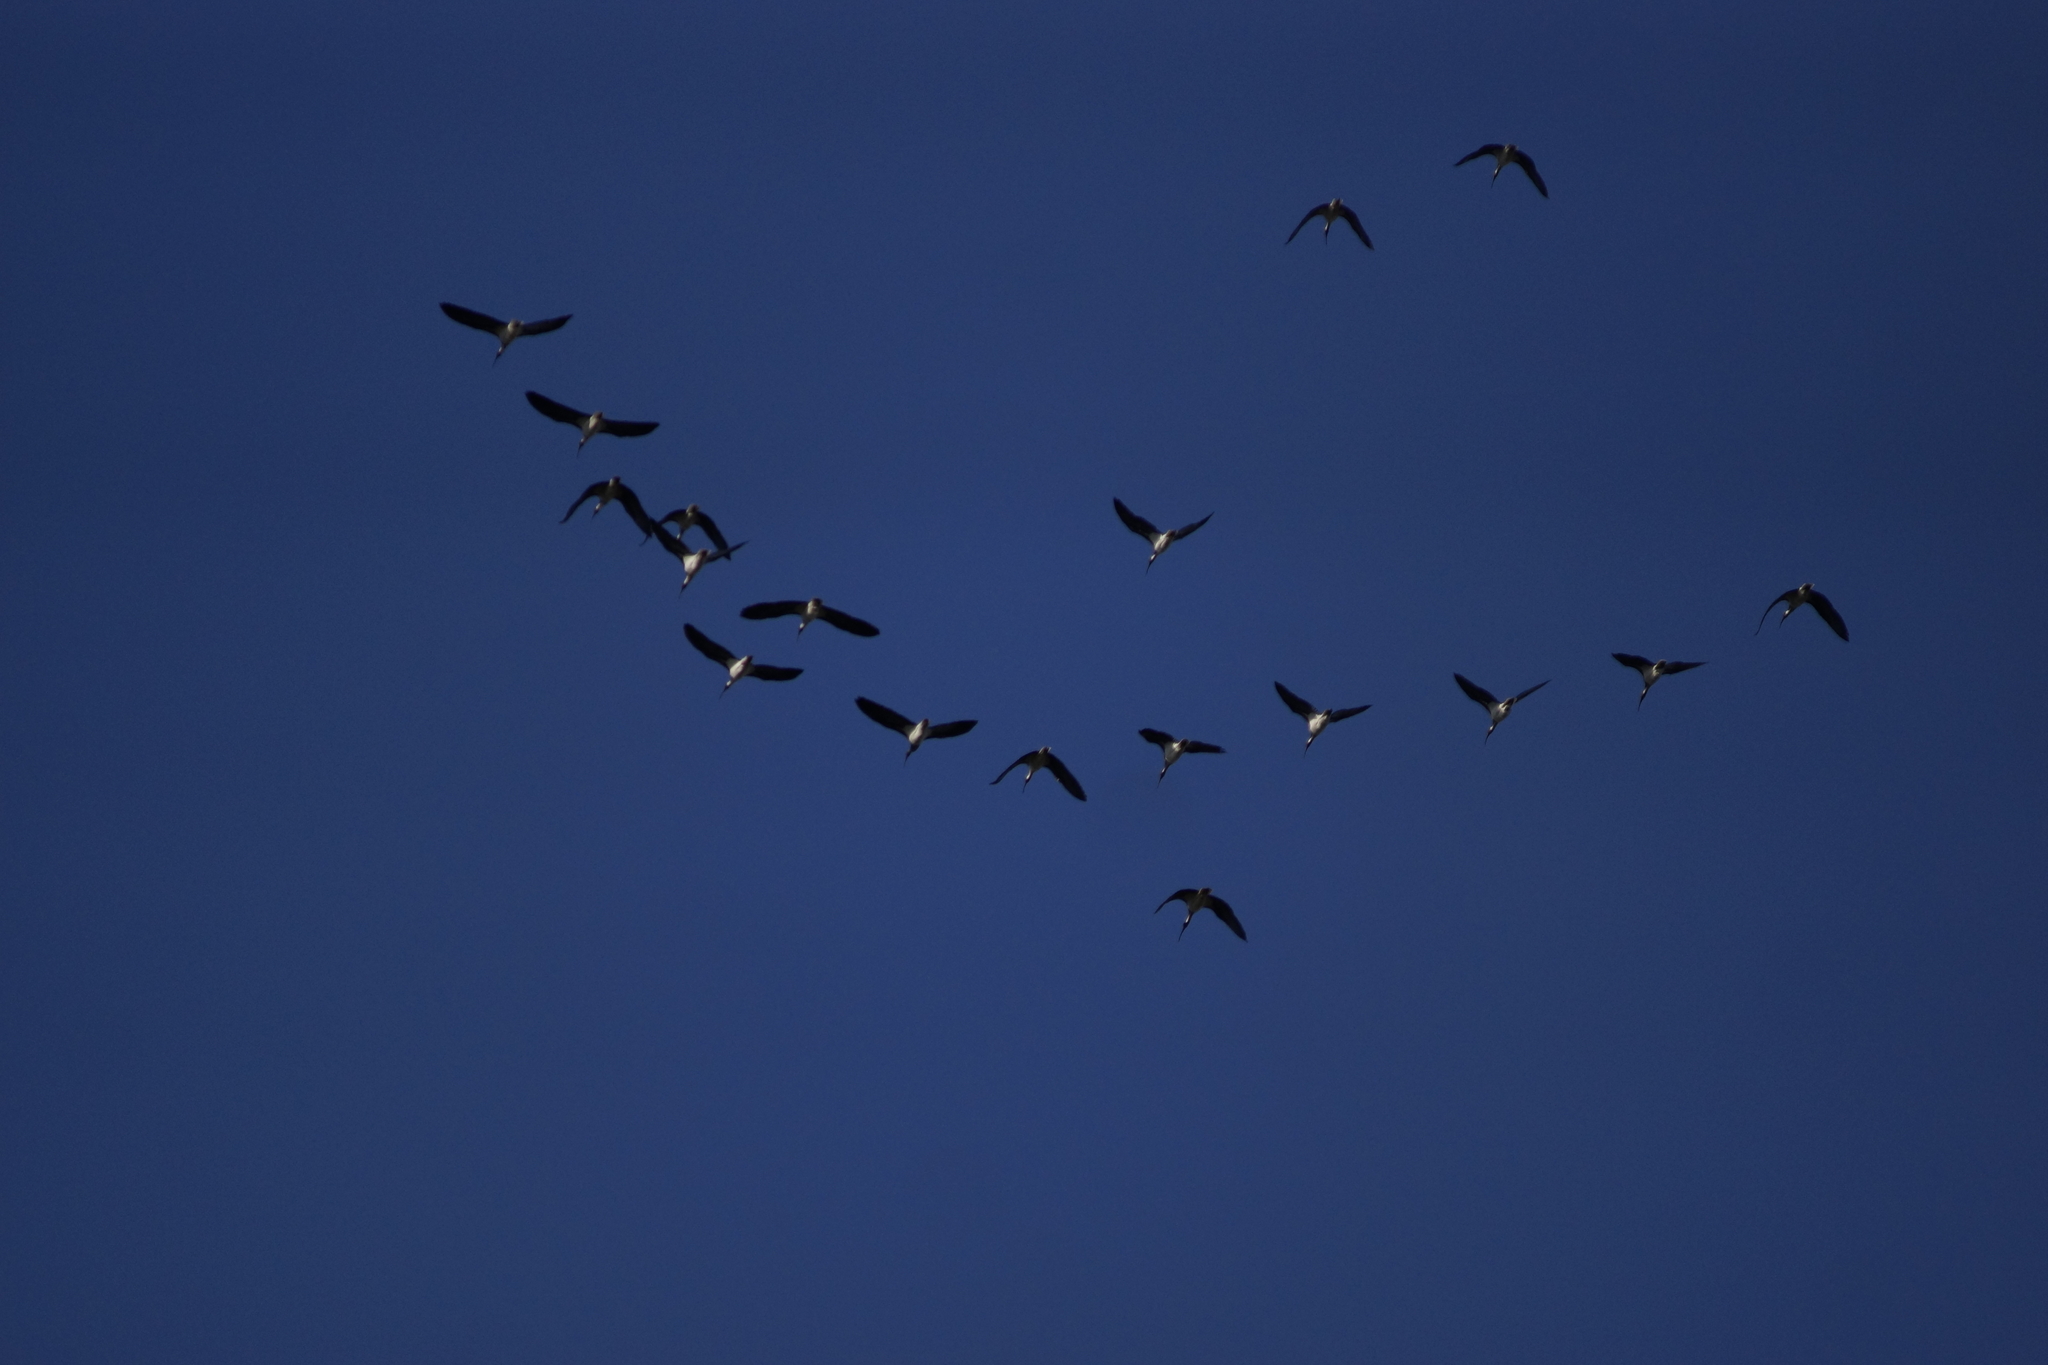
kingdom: Animalia
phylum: Chordata
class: Aves
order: Pelecaniformes
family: Threskiornithidae
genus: Threskiornis
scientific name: Threskiornis spinicollis
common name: Straw-necked ibis
